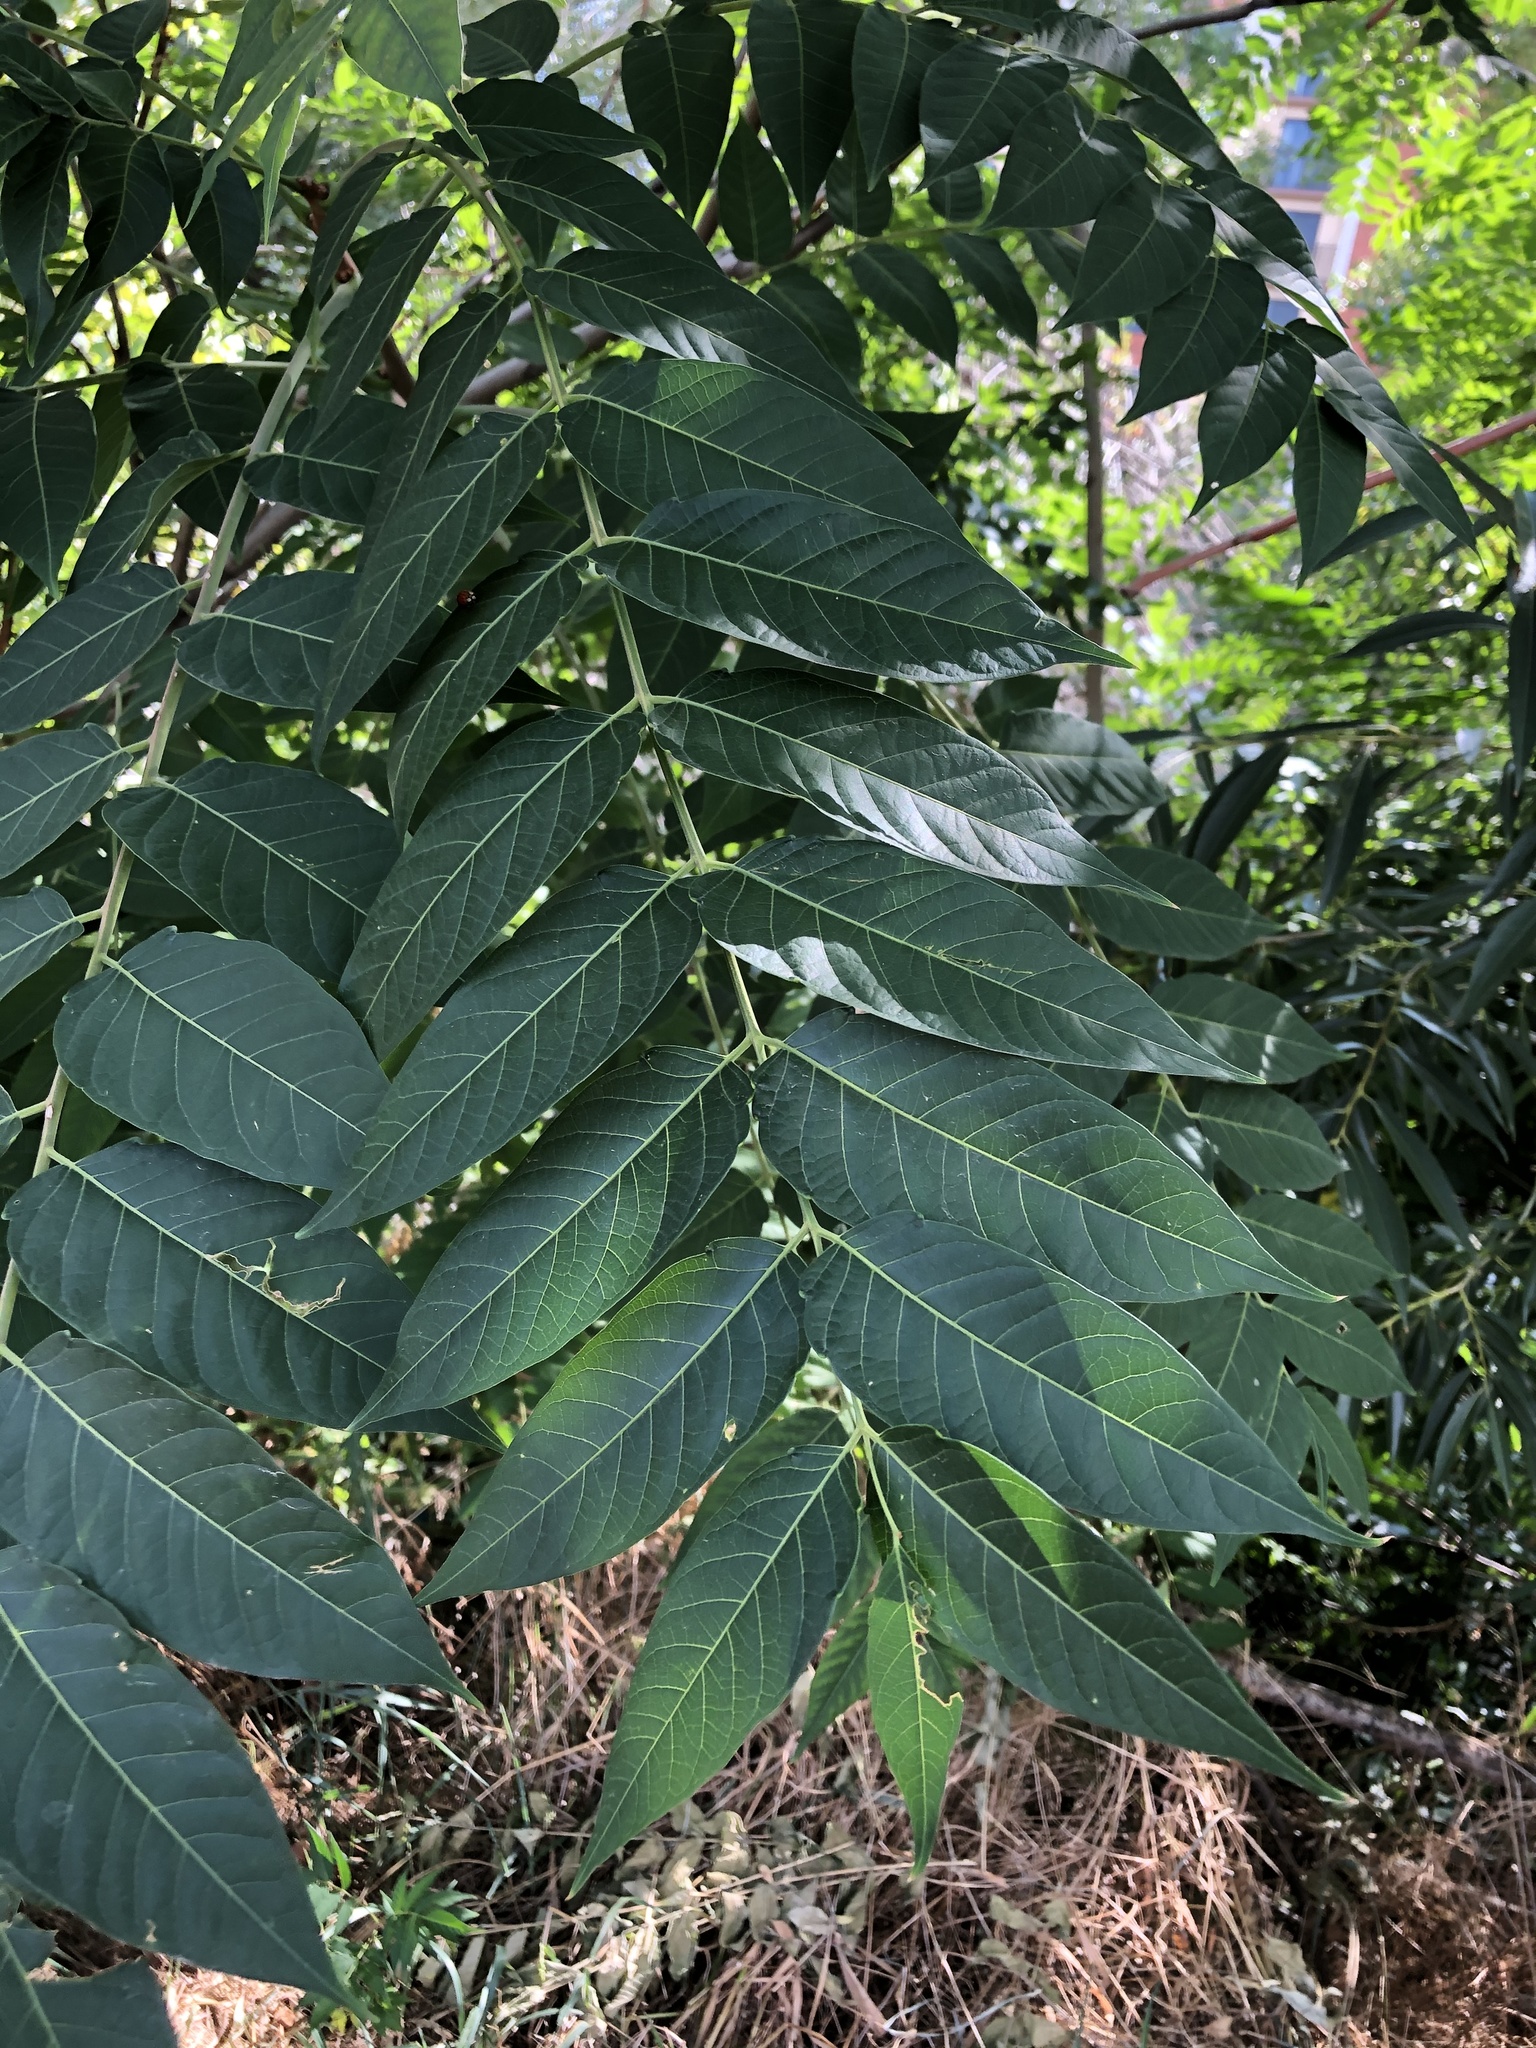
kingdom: Plantae
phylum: Tracheophyta
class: Magnoliopsida
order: Sapindales
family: Simaroubaceae
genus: Ailanthus
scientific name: Ailanthus altissima
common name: Tree-of-heaven
